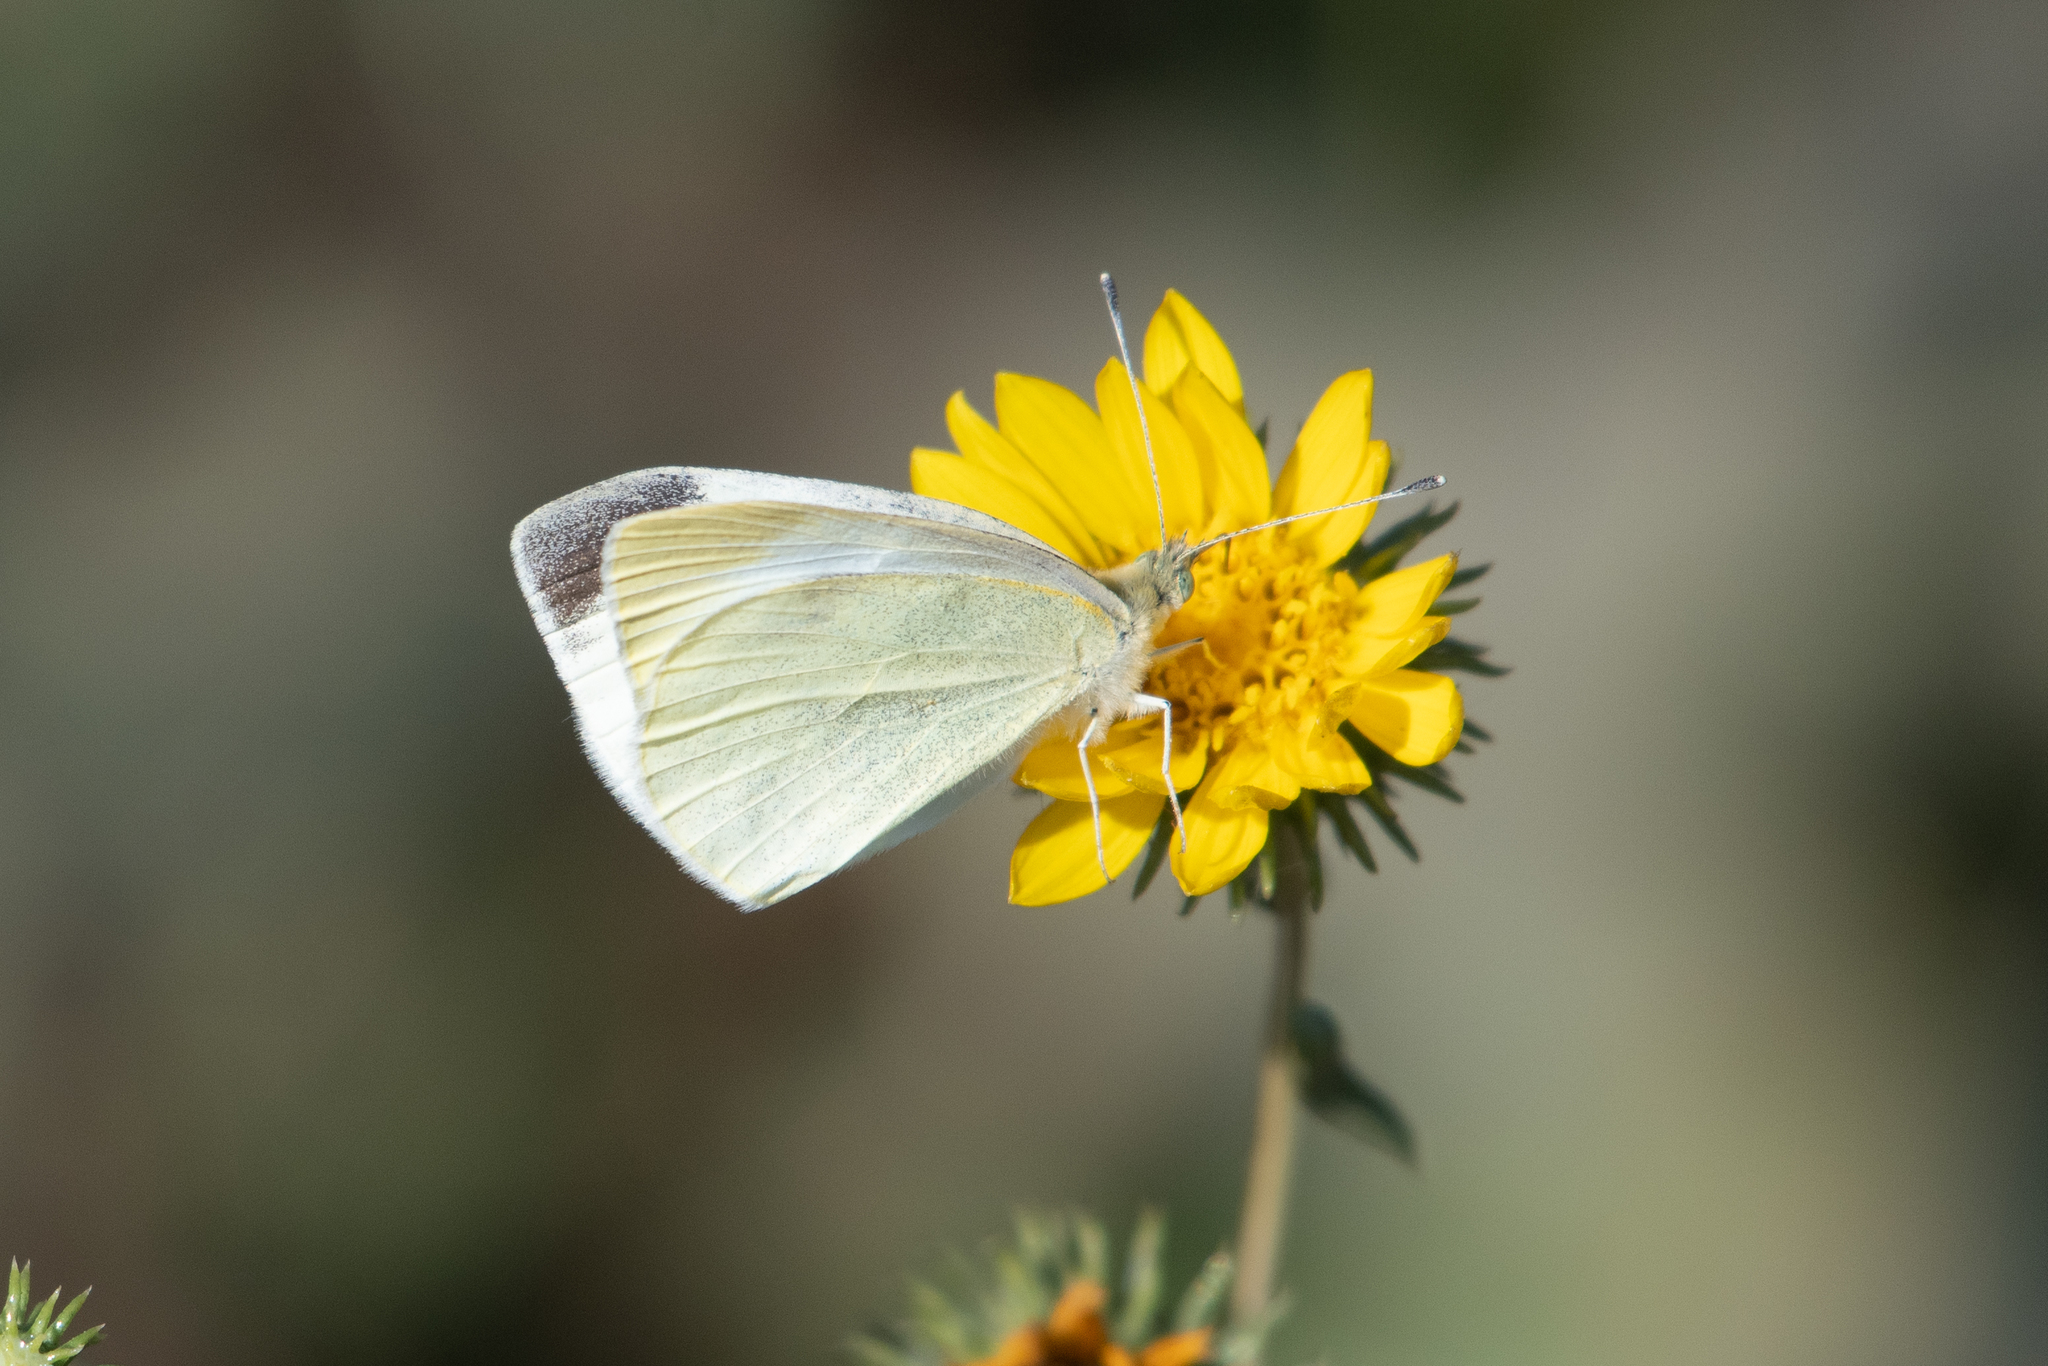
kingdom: Animalia
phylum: Arthropoda
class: Insecta
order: Lepidoptera
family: Pieridae
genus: Pieris
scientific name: Pieris rapae
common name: Small white
